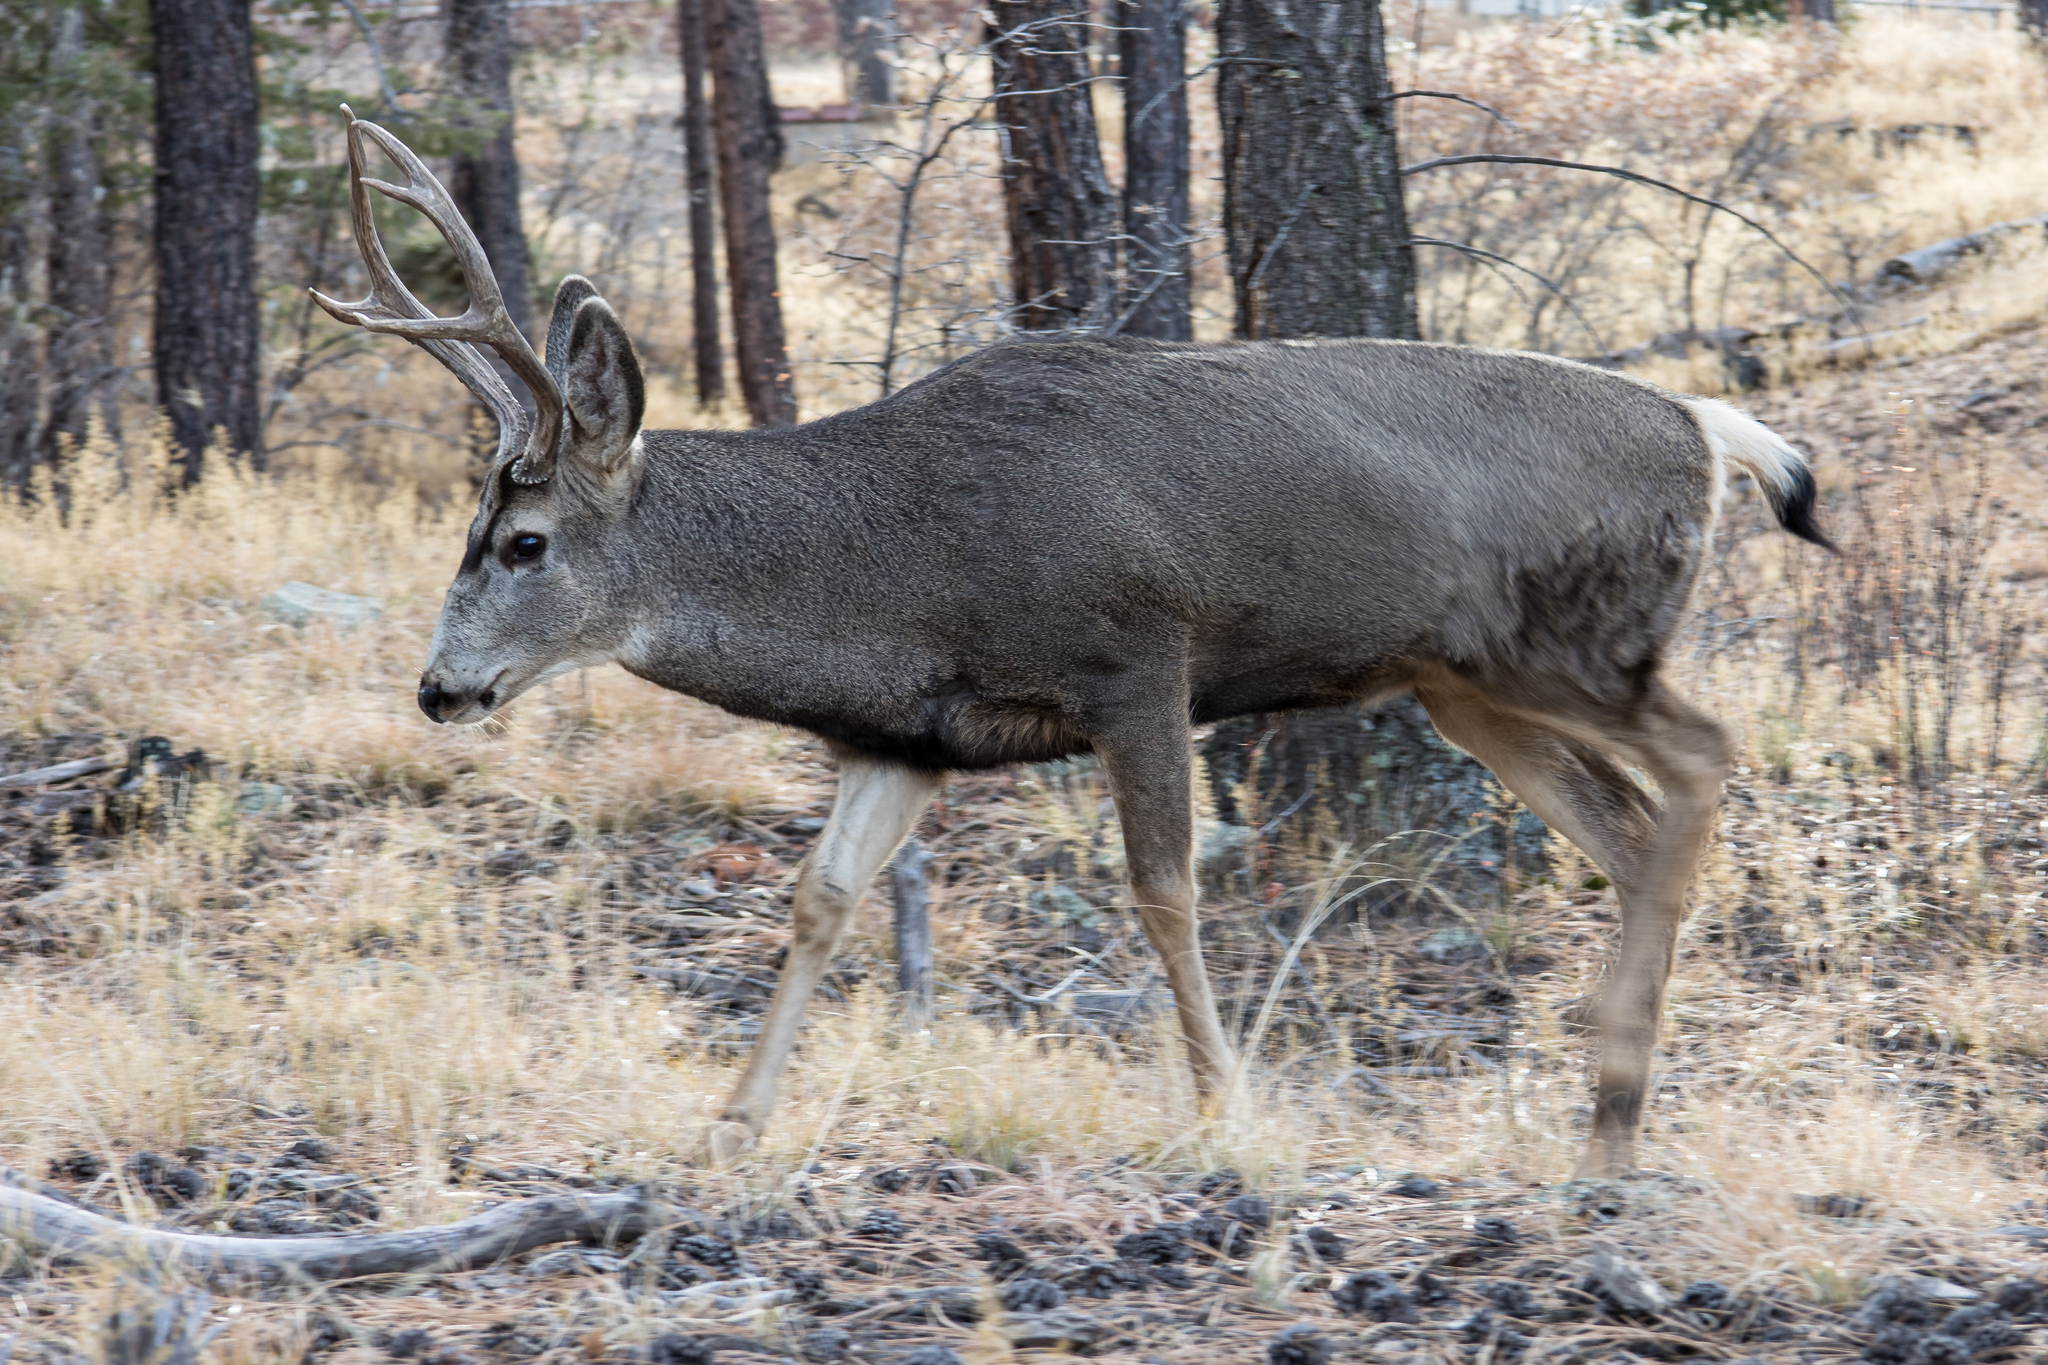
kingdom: Animalia
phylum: Chordata
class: Mammalia
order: Artiodactyla
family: Cervidae
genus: Odocoileus
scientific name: Odocoileus hemionus
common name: Mule deer
